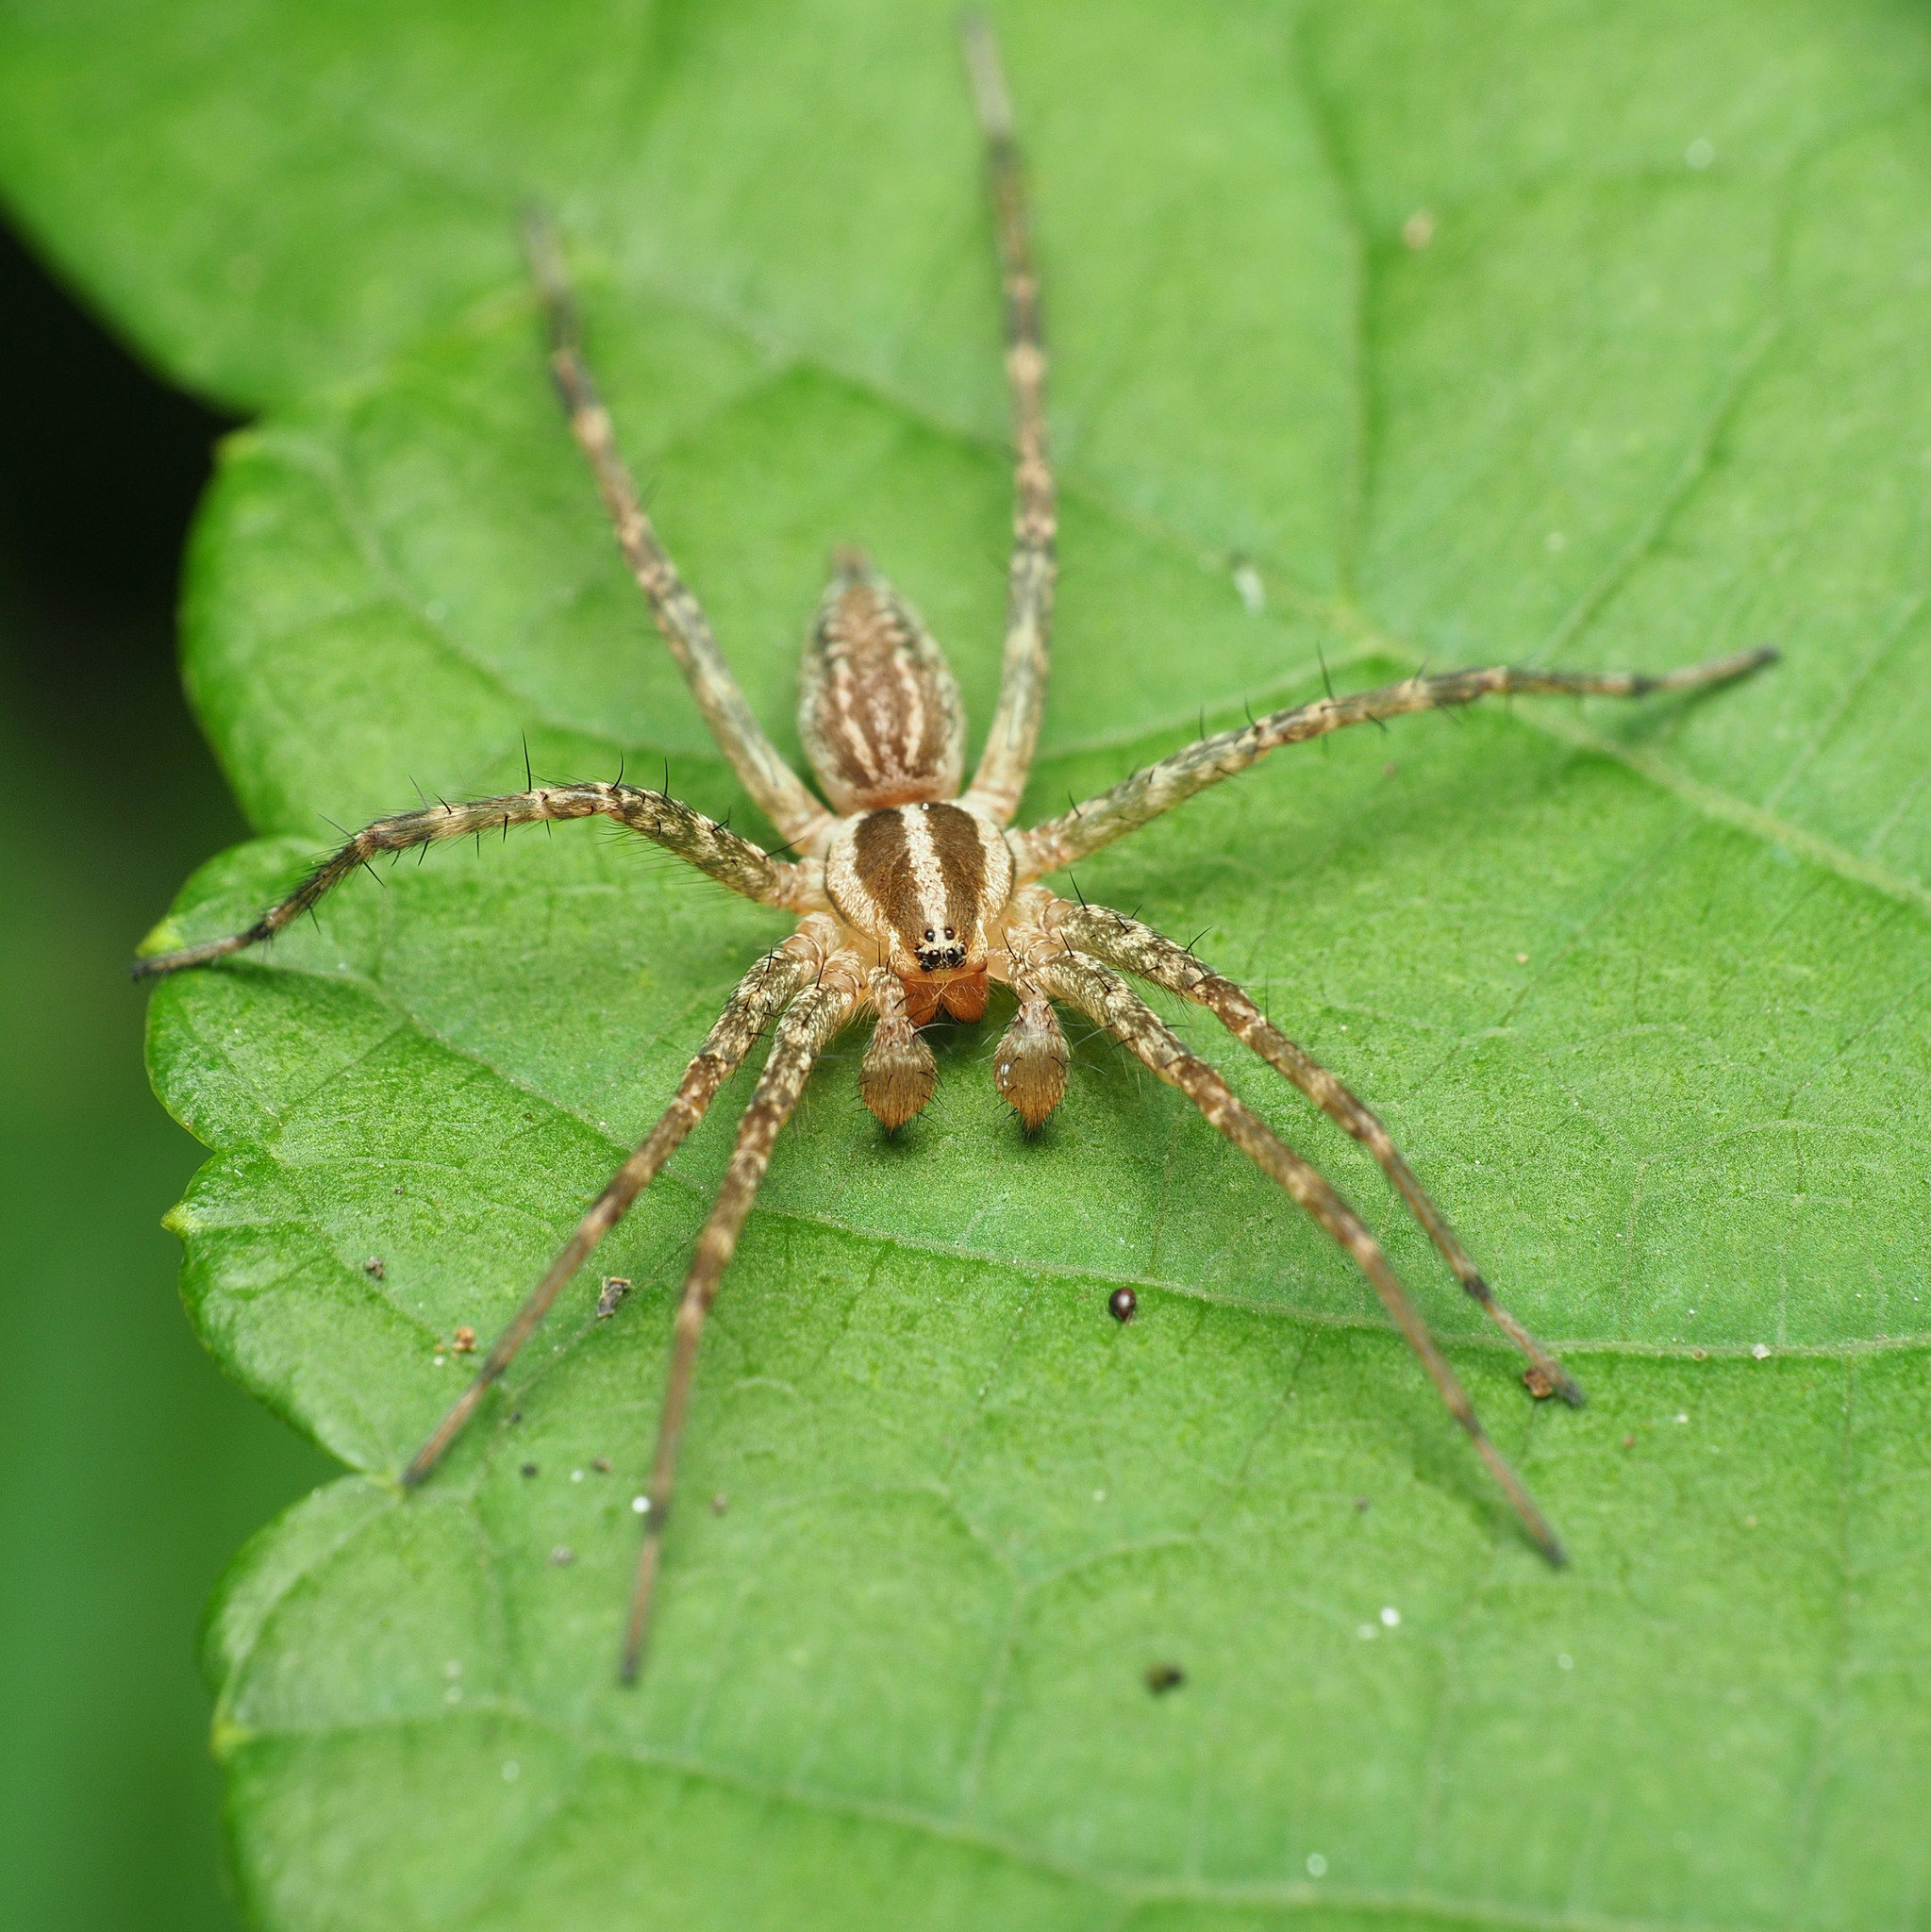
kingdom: Animalia
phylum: Arthropoda
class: Arachnida
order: Araneae
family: Agelenidae
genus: Agelenopsis
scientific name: Agelenopsis
